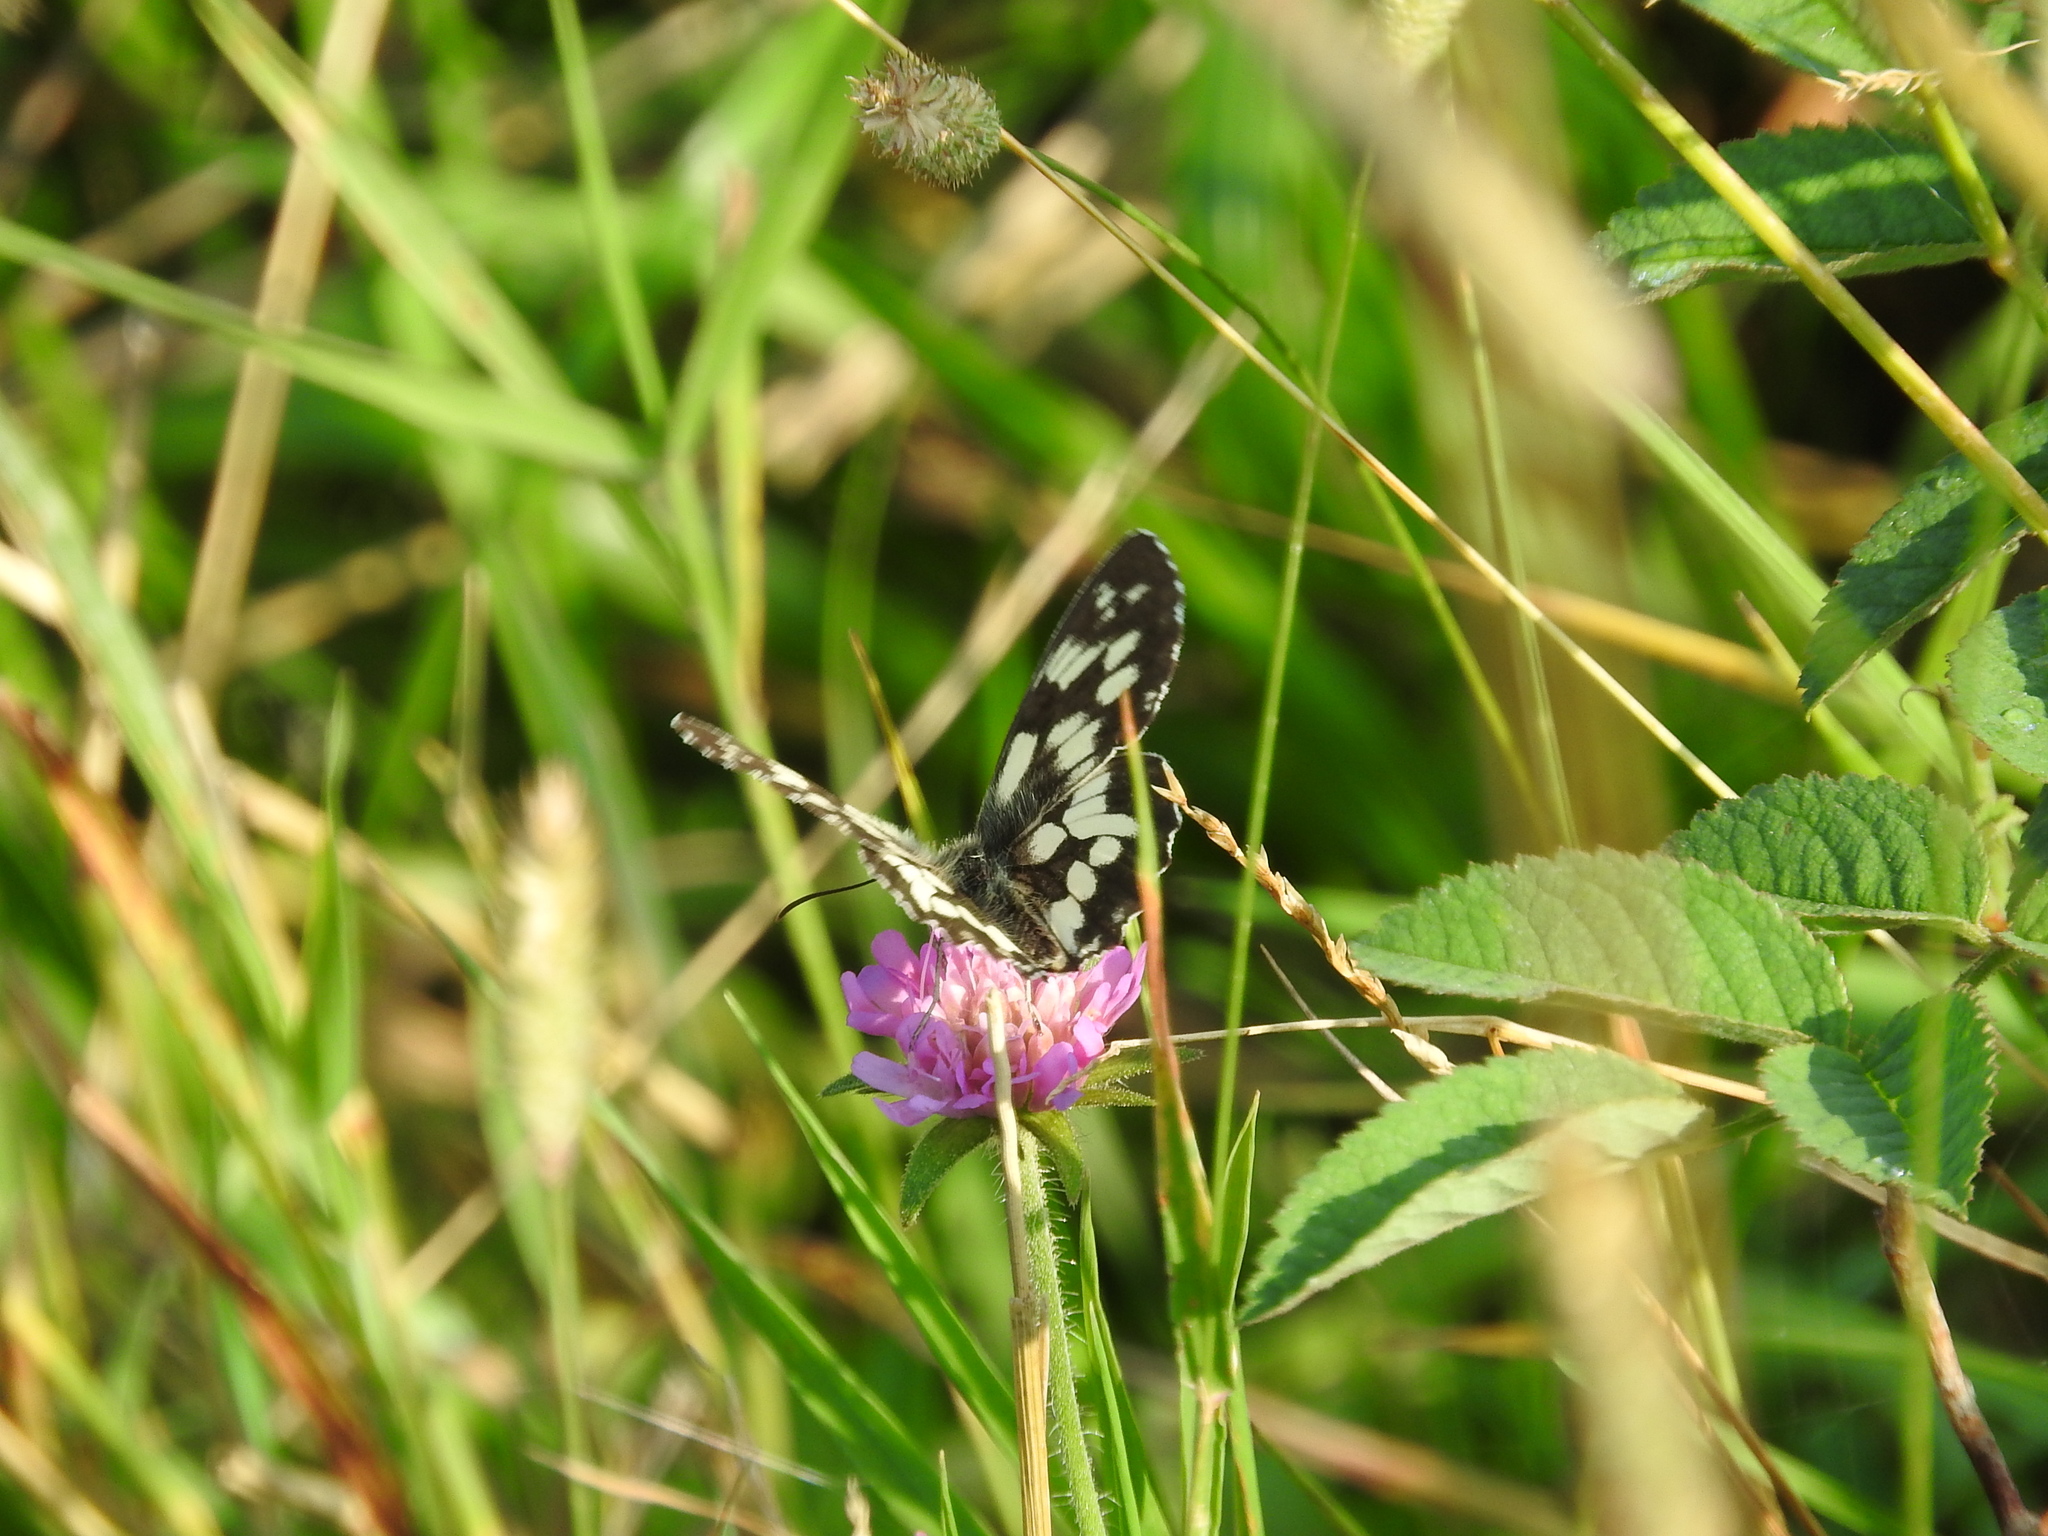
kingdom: Animalia
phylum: Arthropoda
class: Insecta
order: Lepidoptera
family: Nymphalidae
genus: Melanargia
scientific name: Melanargia galathea
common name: Marbled white
